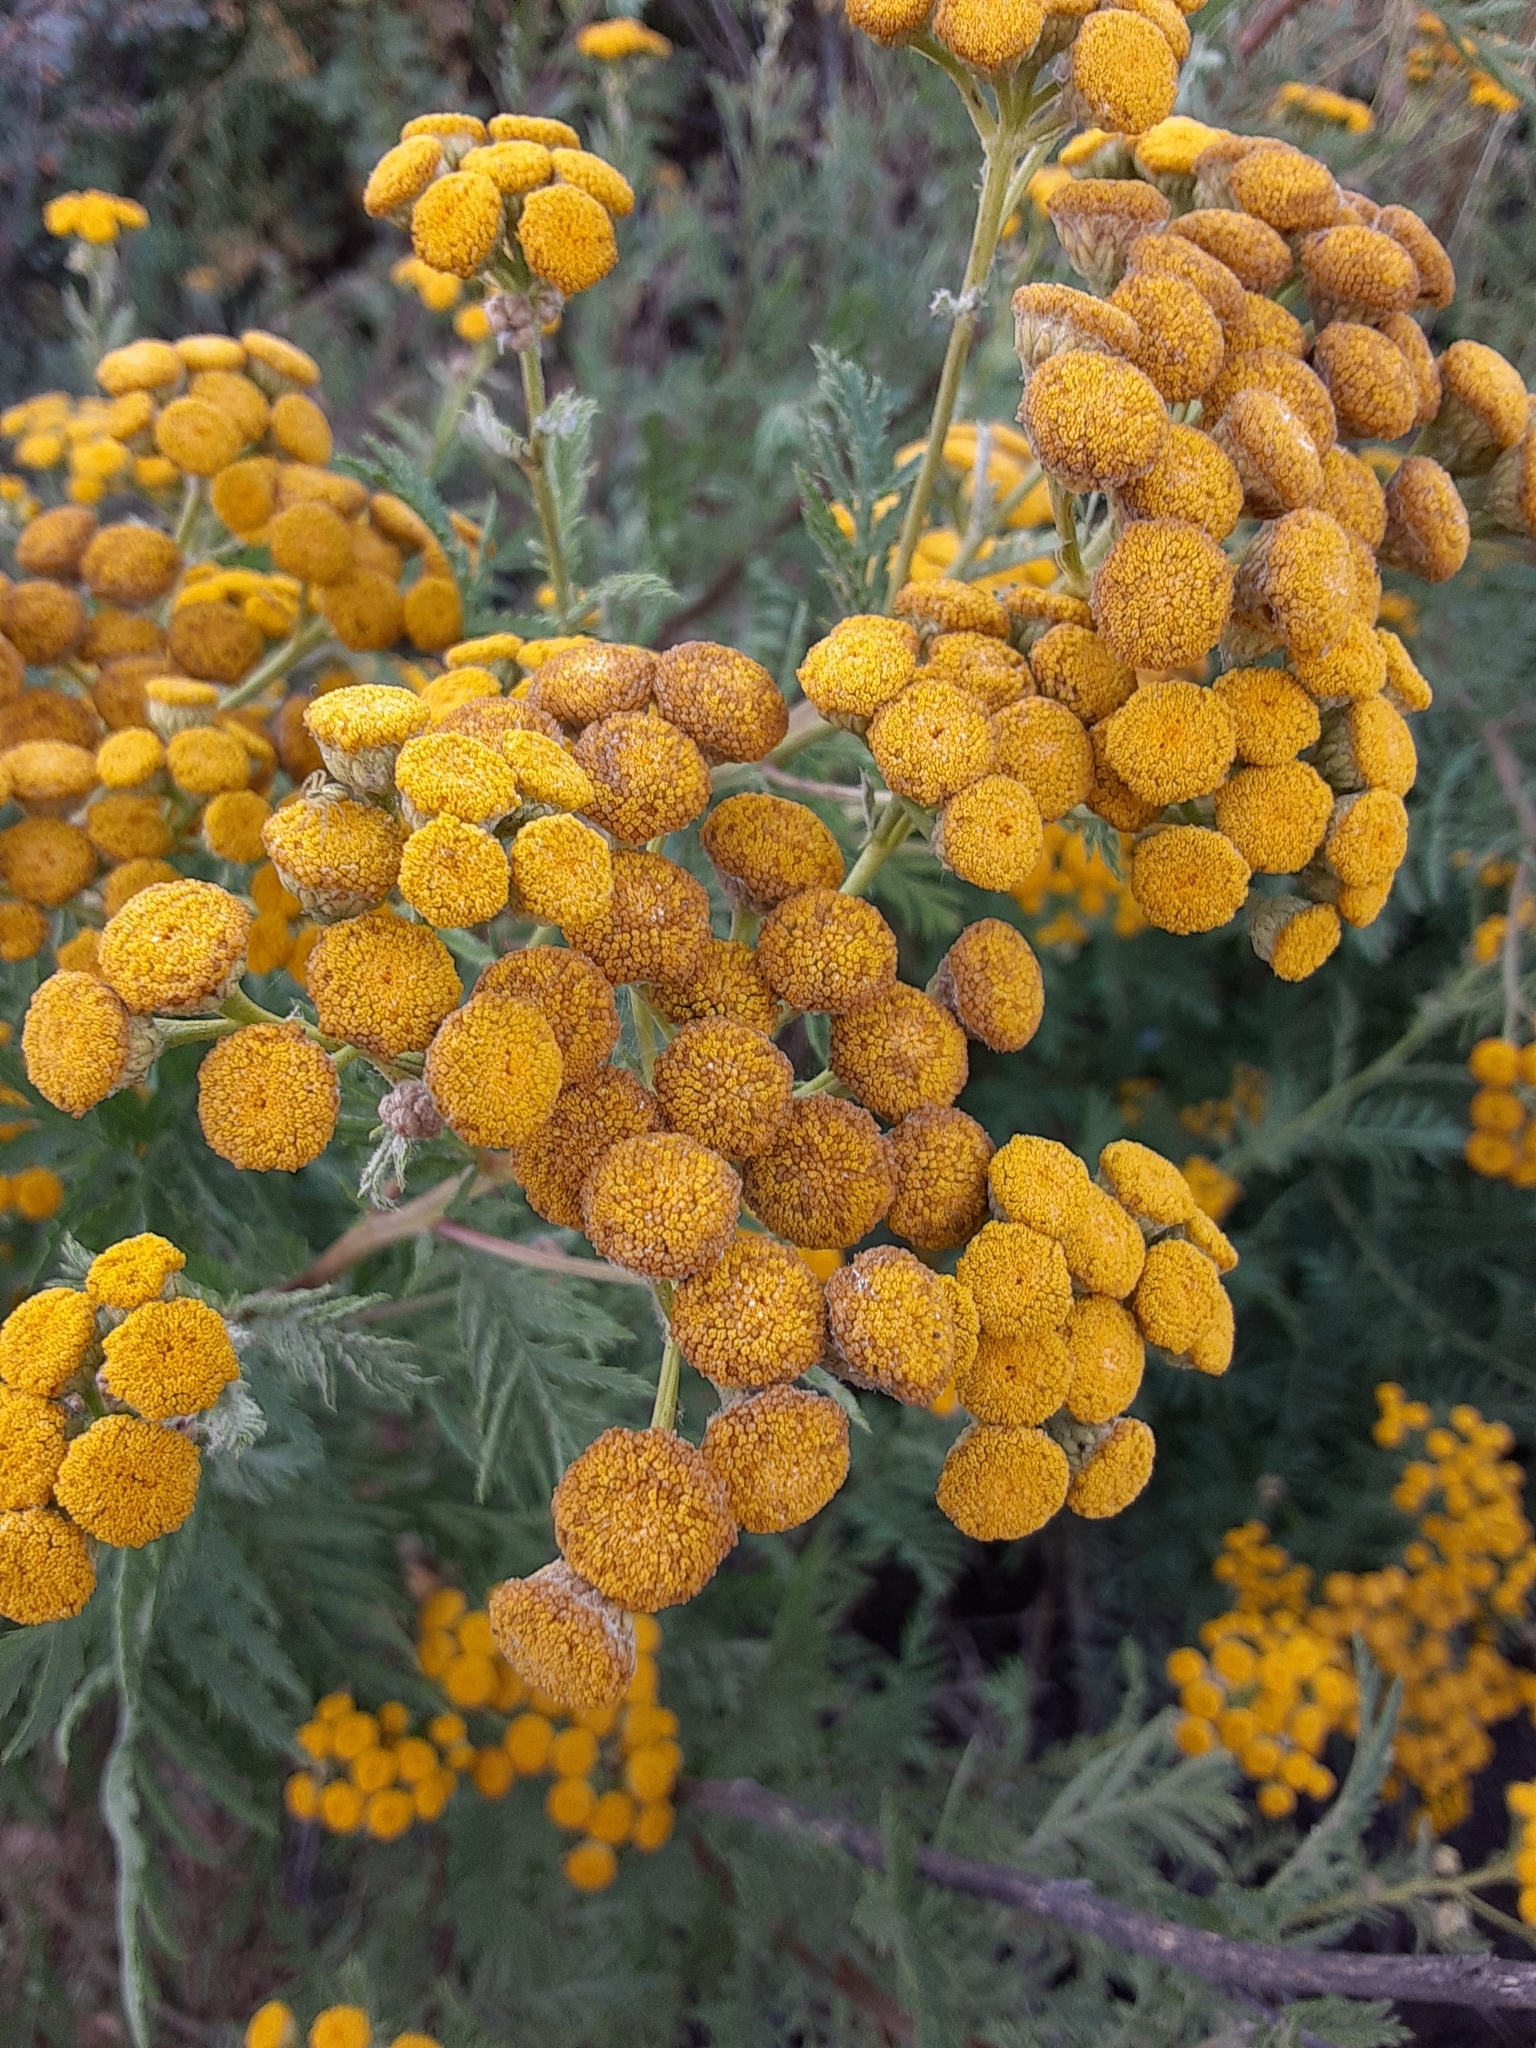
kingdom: Plantae
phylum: Tracheophyta
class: Magnoliopsida
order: Asterales
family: Asteraceae
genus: Tanacetum
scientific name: Tanacetum vulgare
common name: Common tansy
